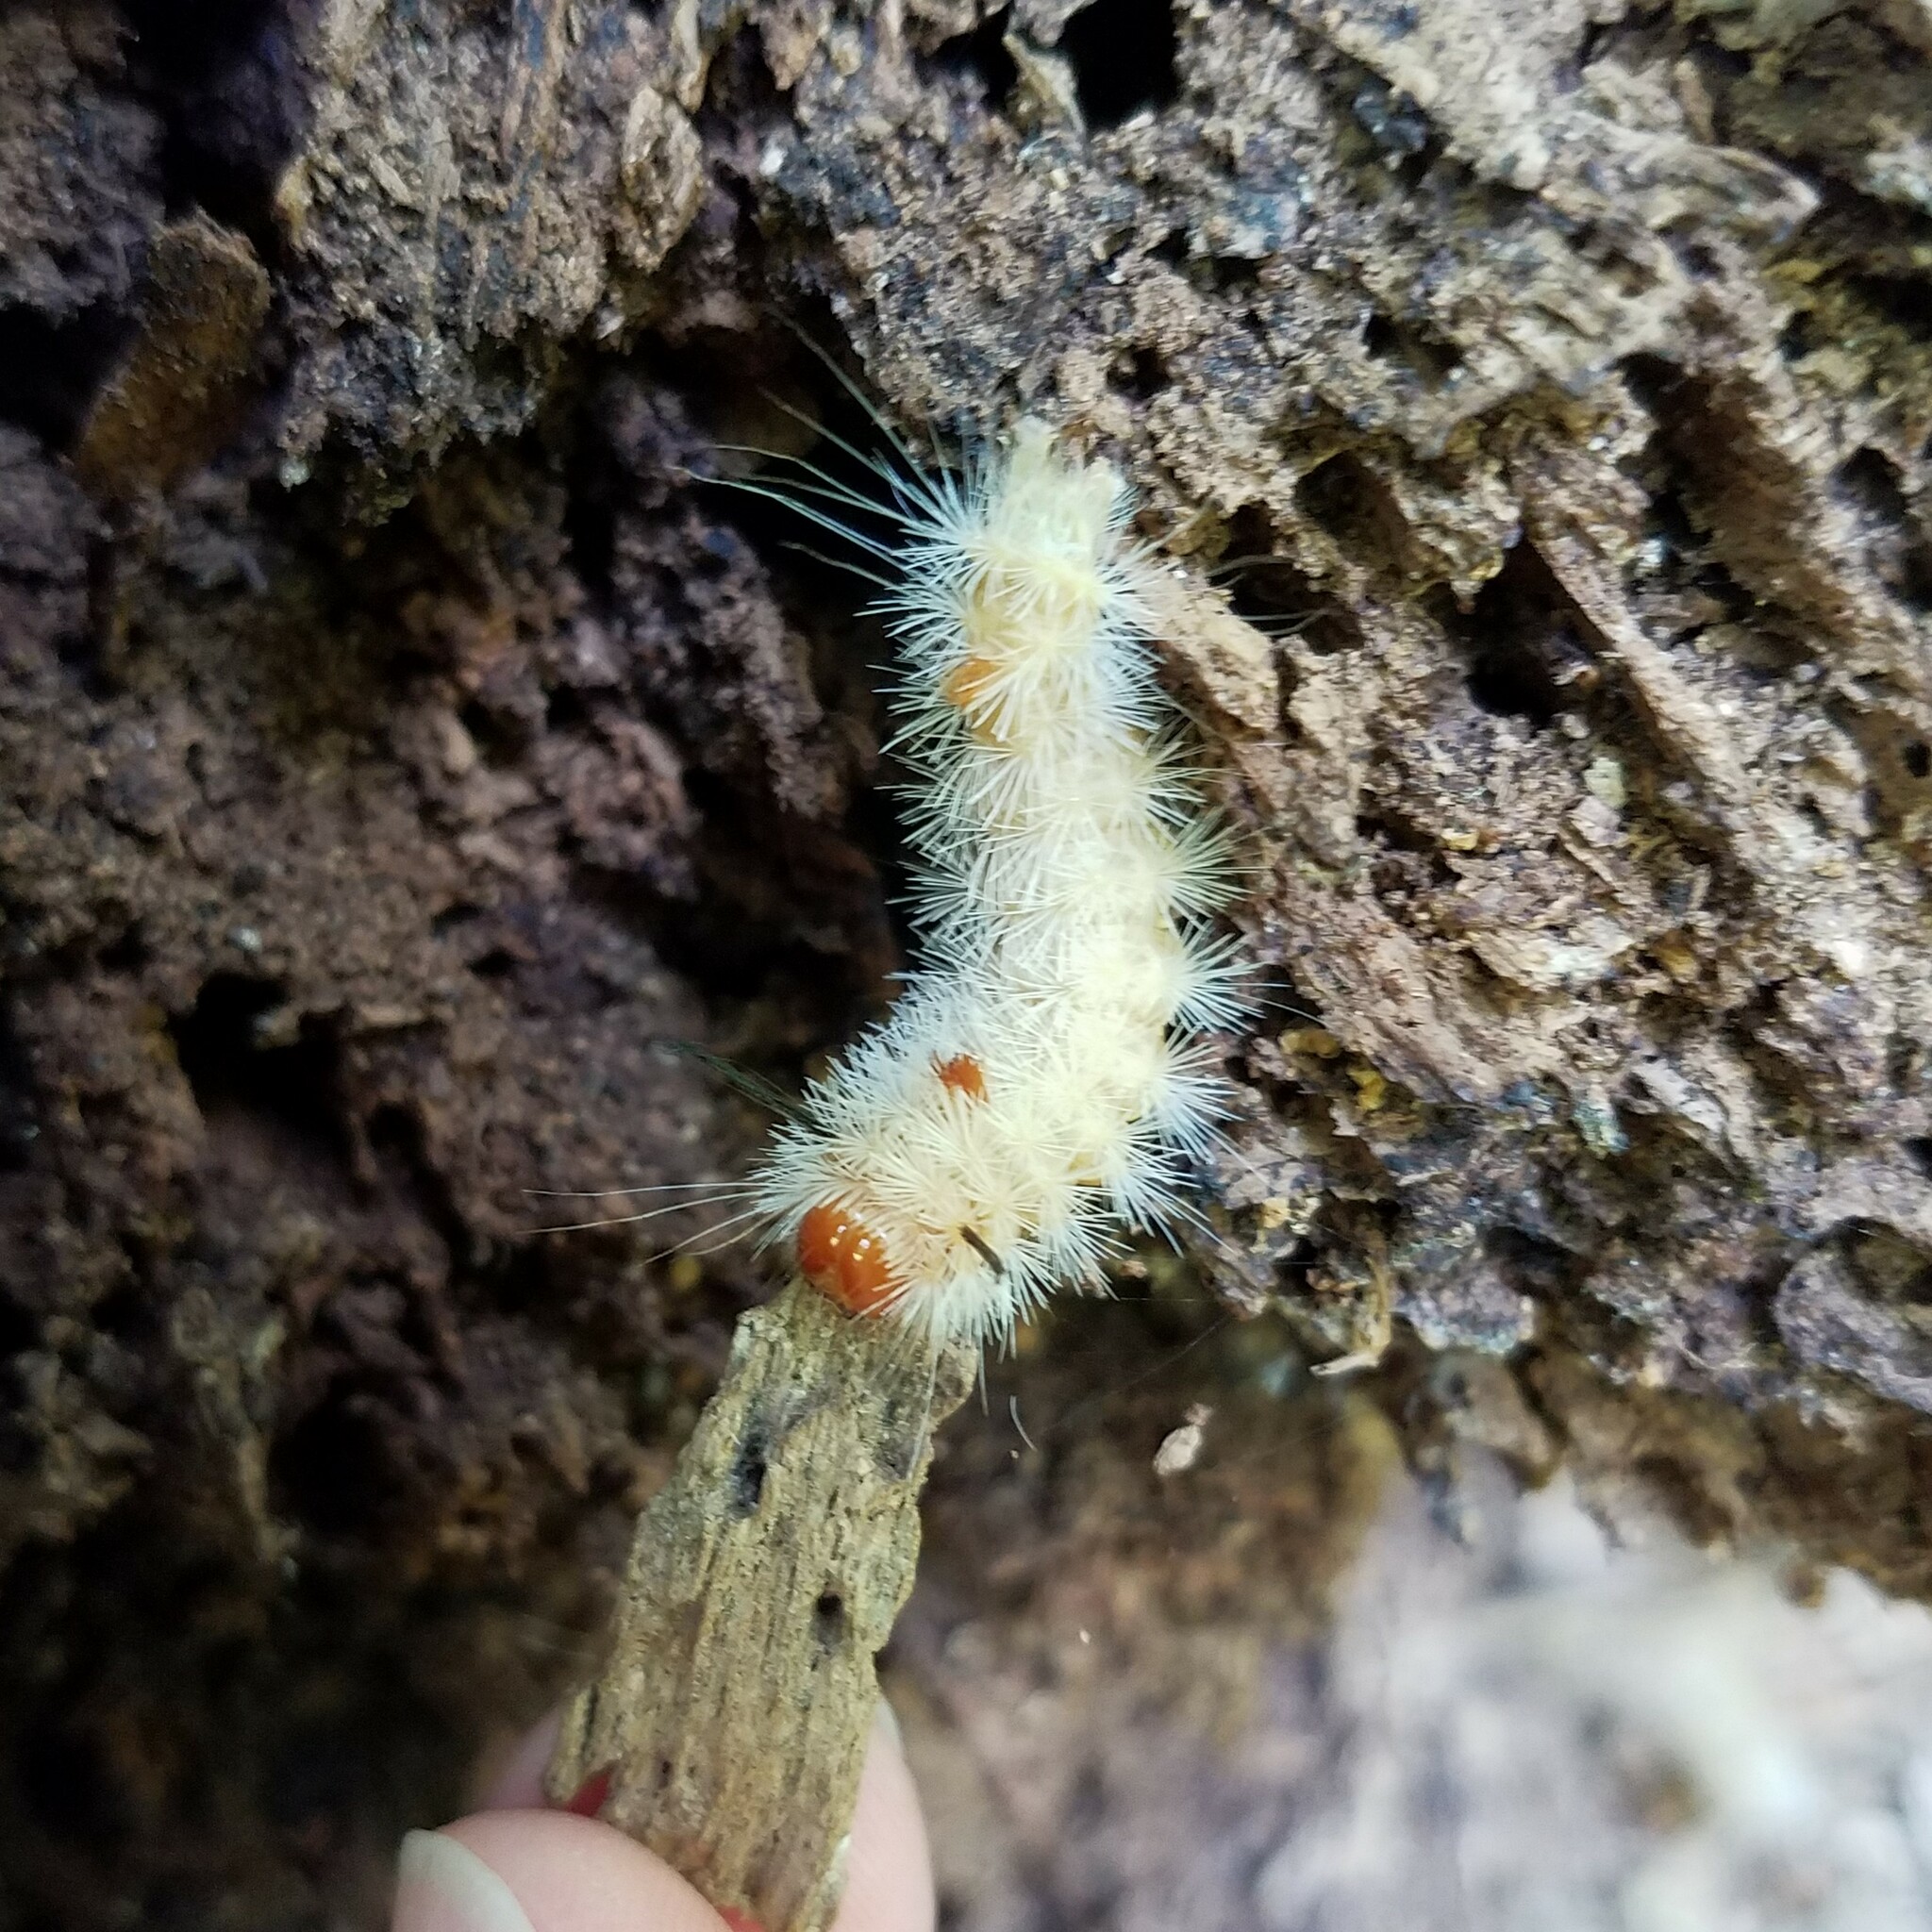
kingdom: Animalia
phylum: Arthropoda
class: Insecta
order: Lepidoptera
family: Noctuidae
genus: Colocasia
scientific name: Colocasia propinquilinea
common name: Close-banded demas
